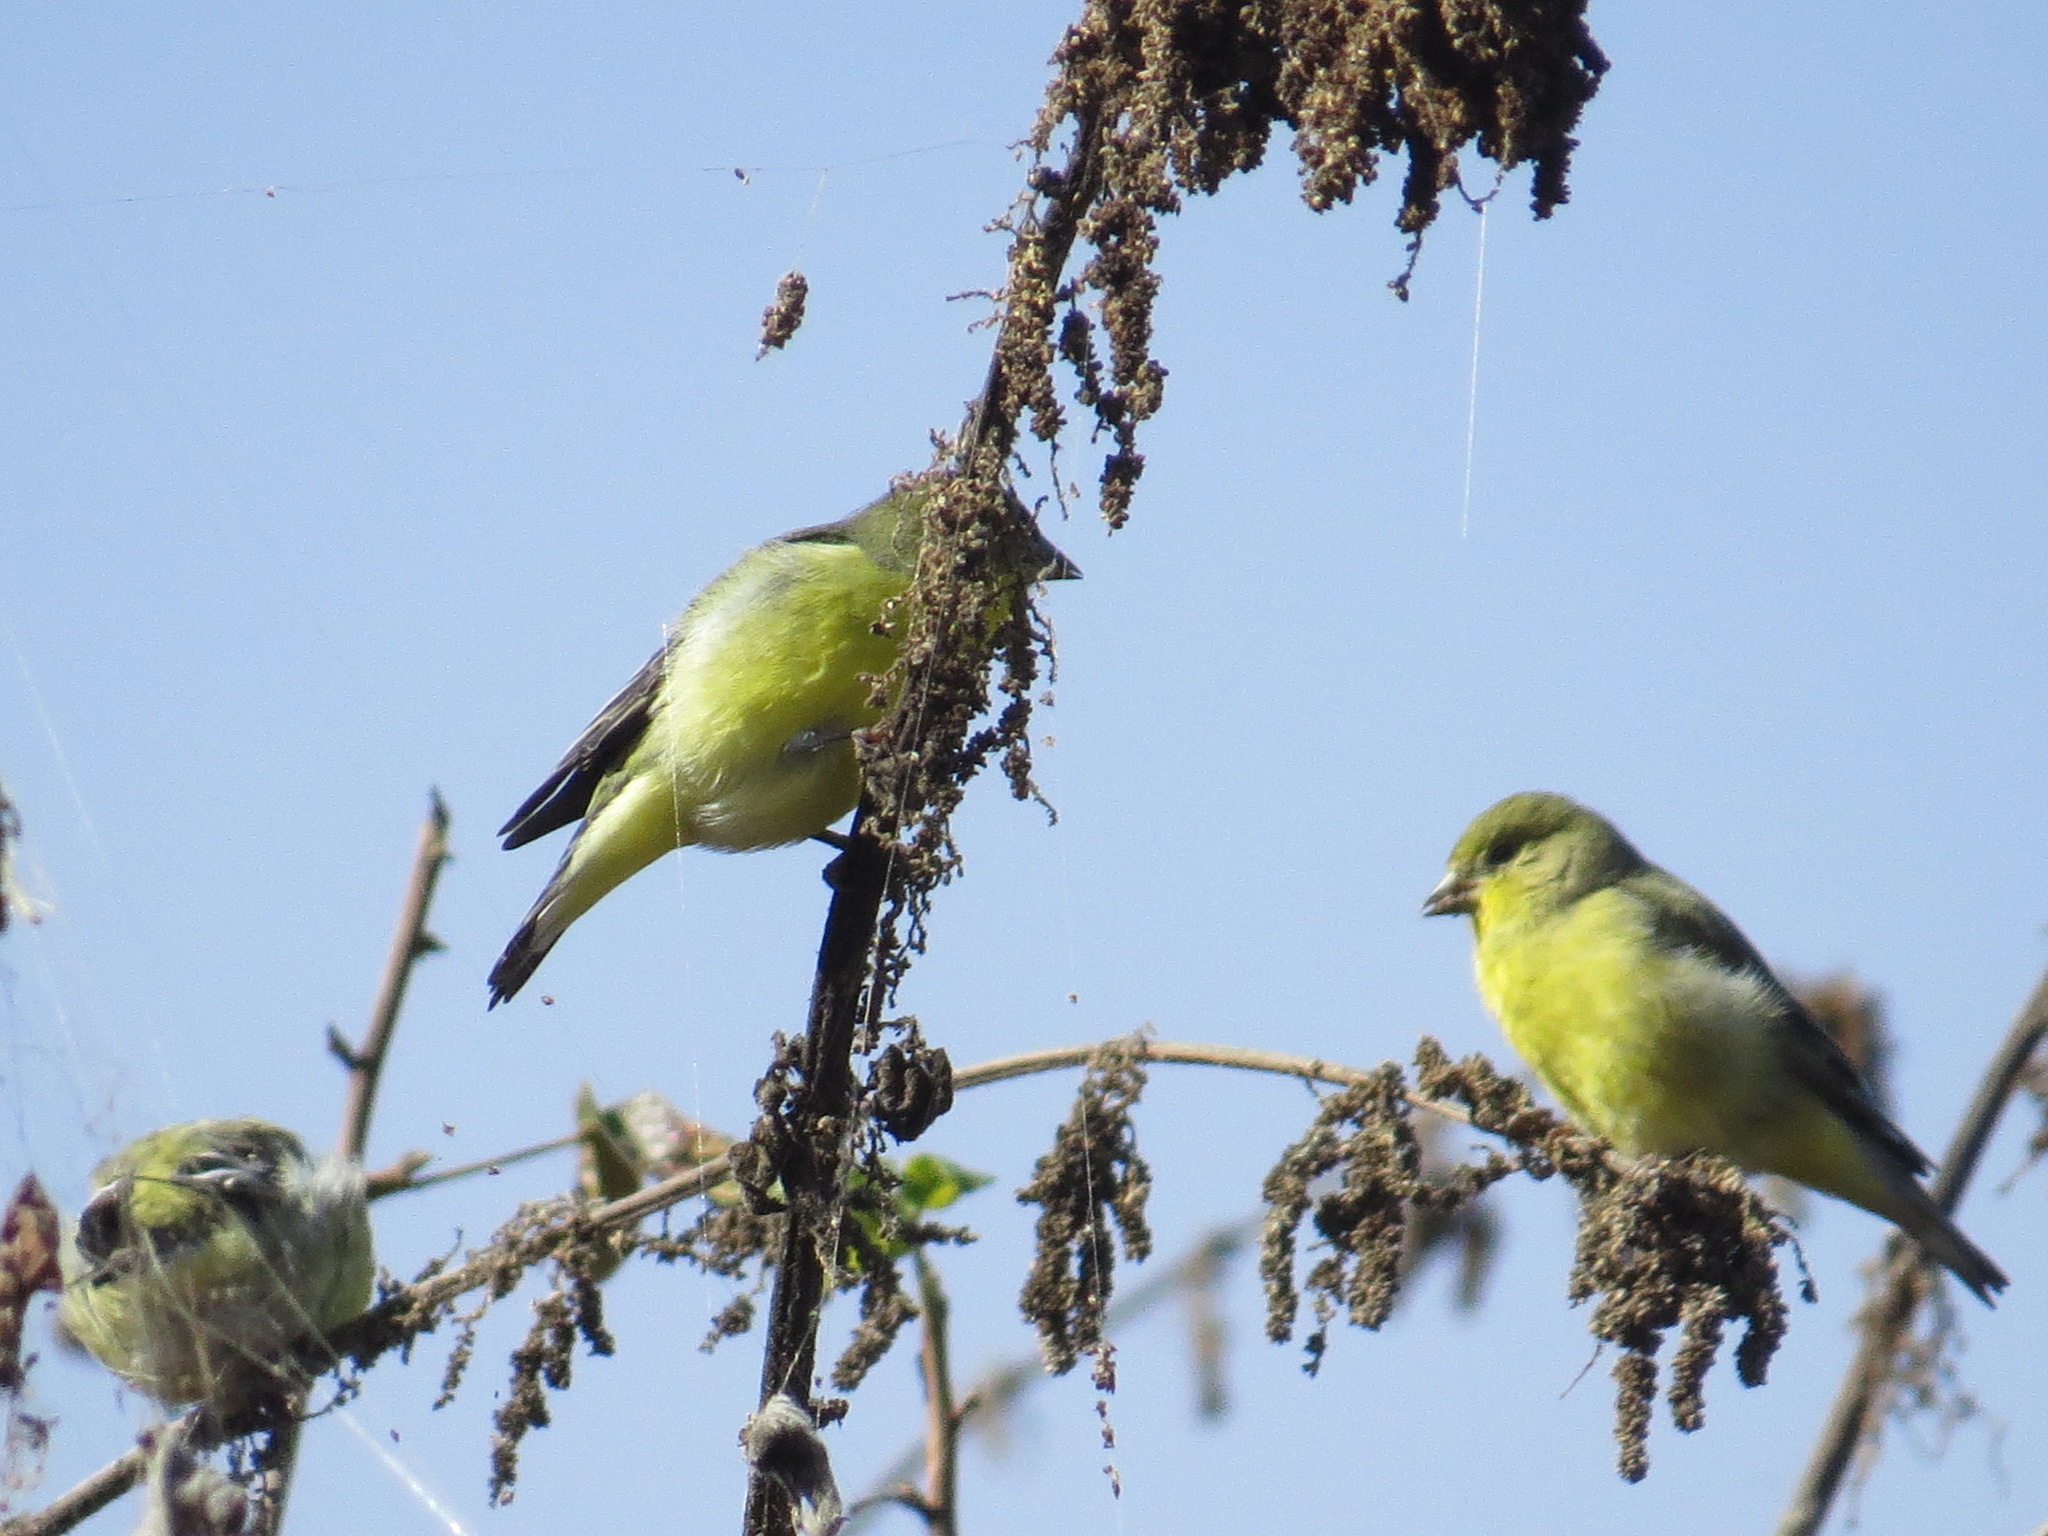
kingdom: Animalia
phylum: Chordata
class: Aves
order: Passeriformes
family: Fringillidae
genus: Spinus
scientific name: Spinus psaltria
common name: Lesser goldfinch
